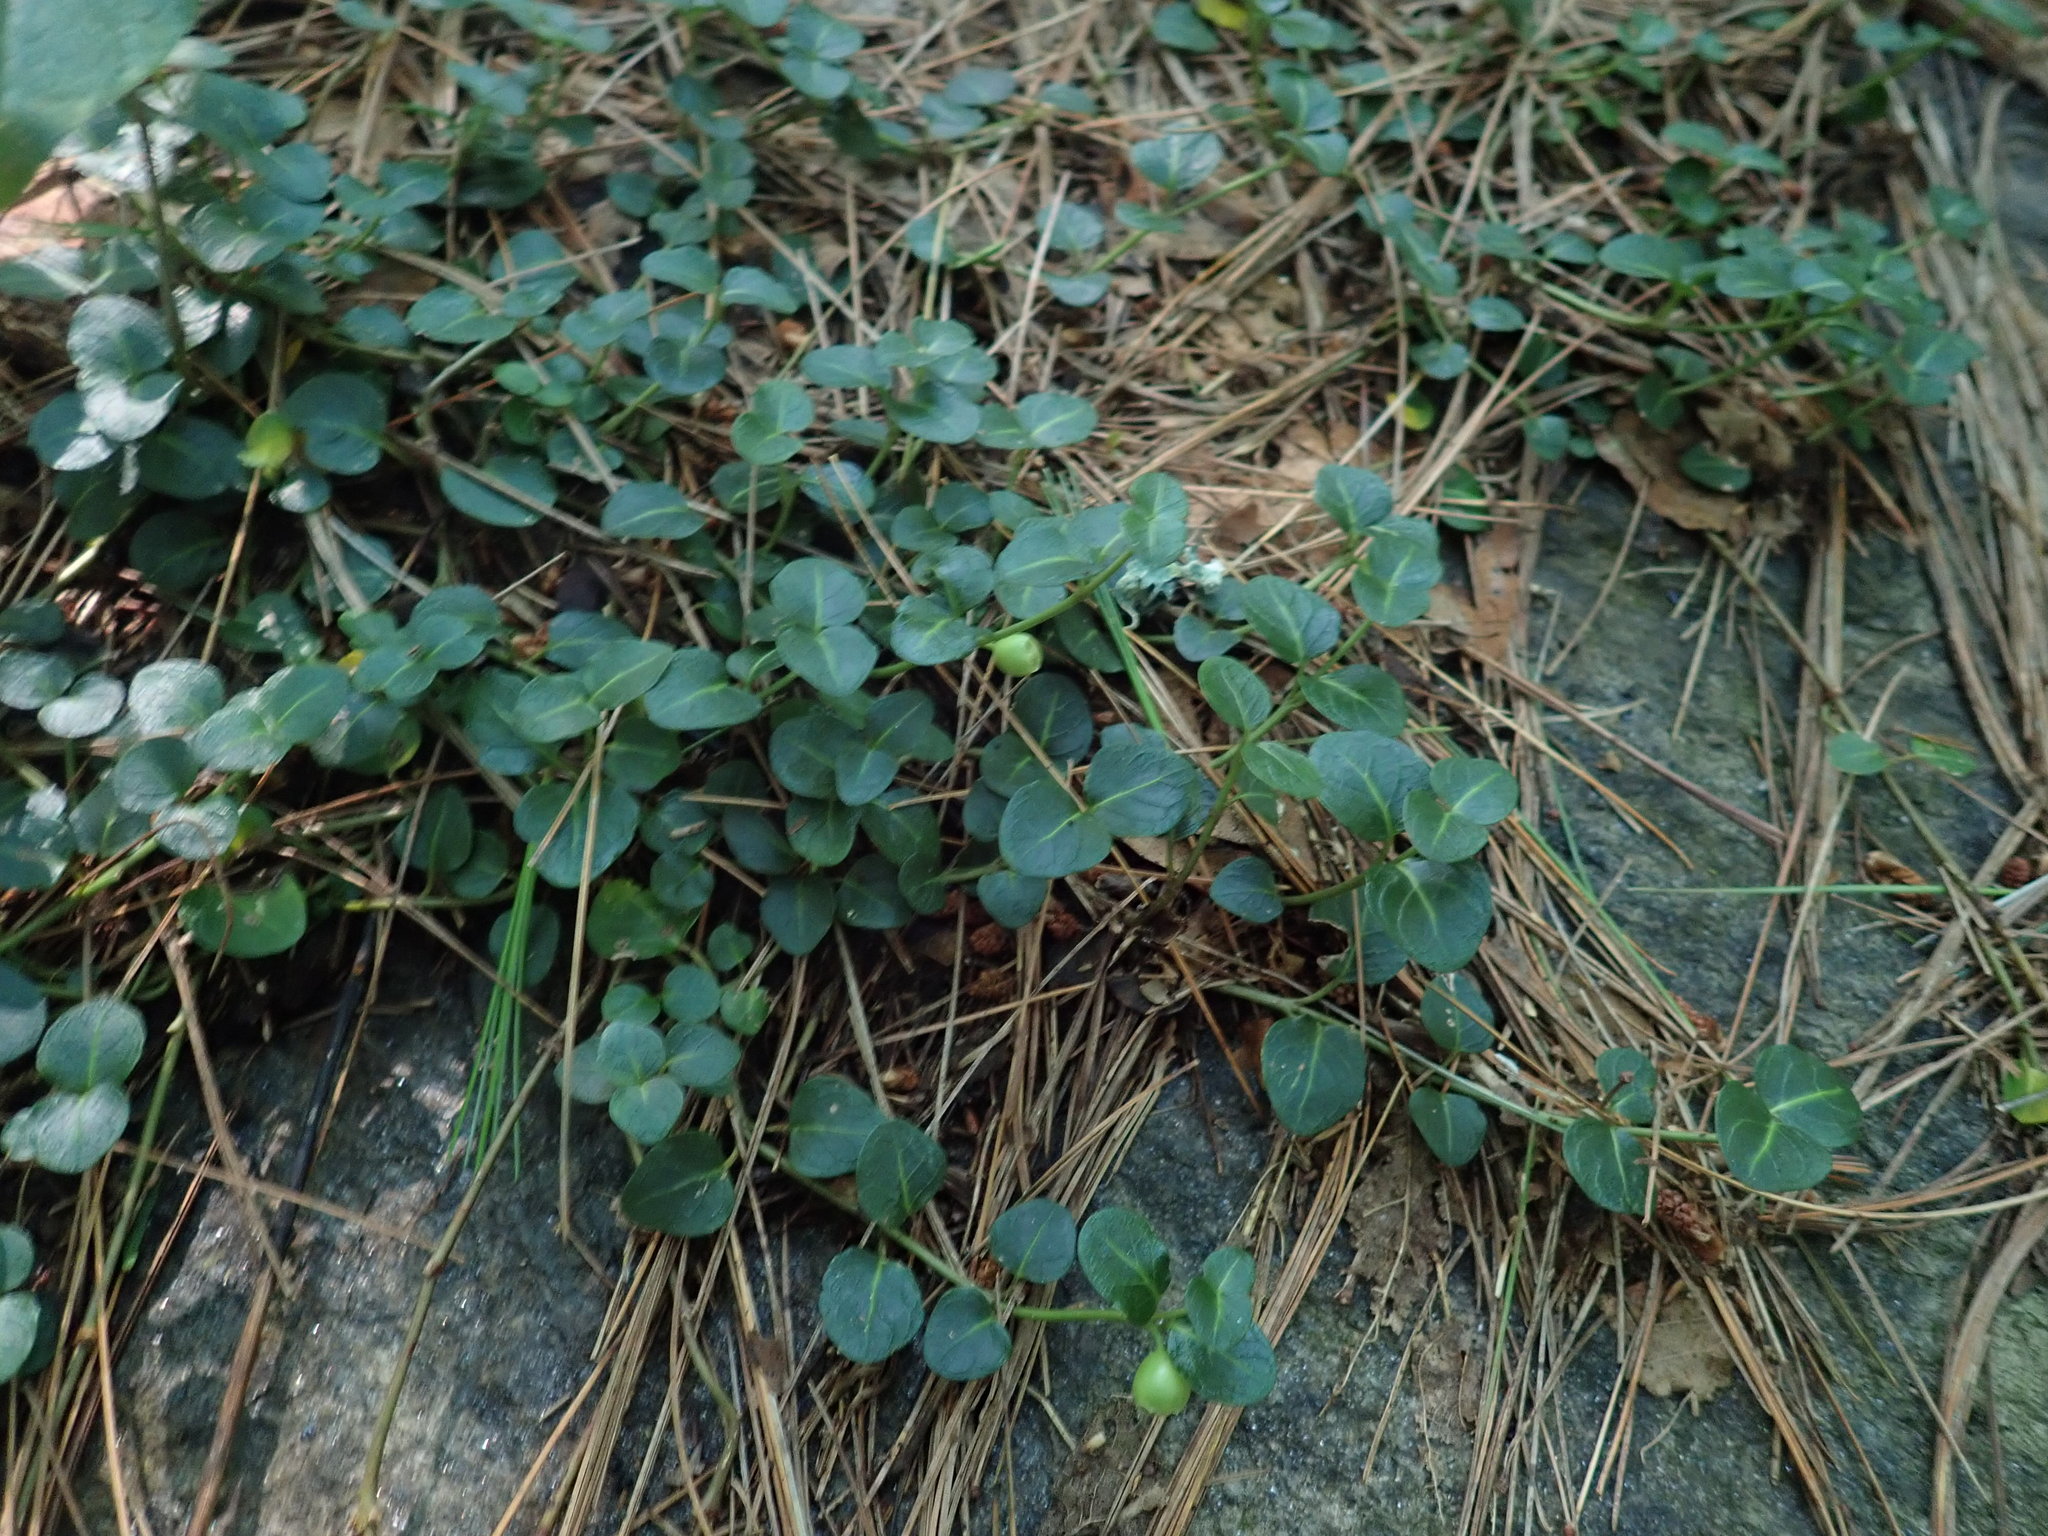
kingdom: Plantae
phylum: Tracheophyta
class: Magnoliopsida
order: Gentianales
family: Rubiaceae
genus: Mitchella
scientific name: Mitchella repens
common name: Partridge-berry
